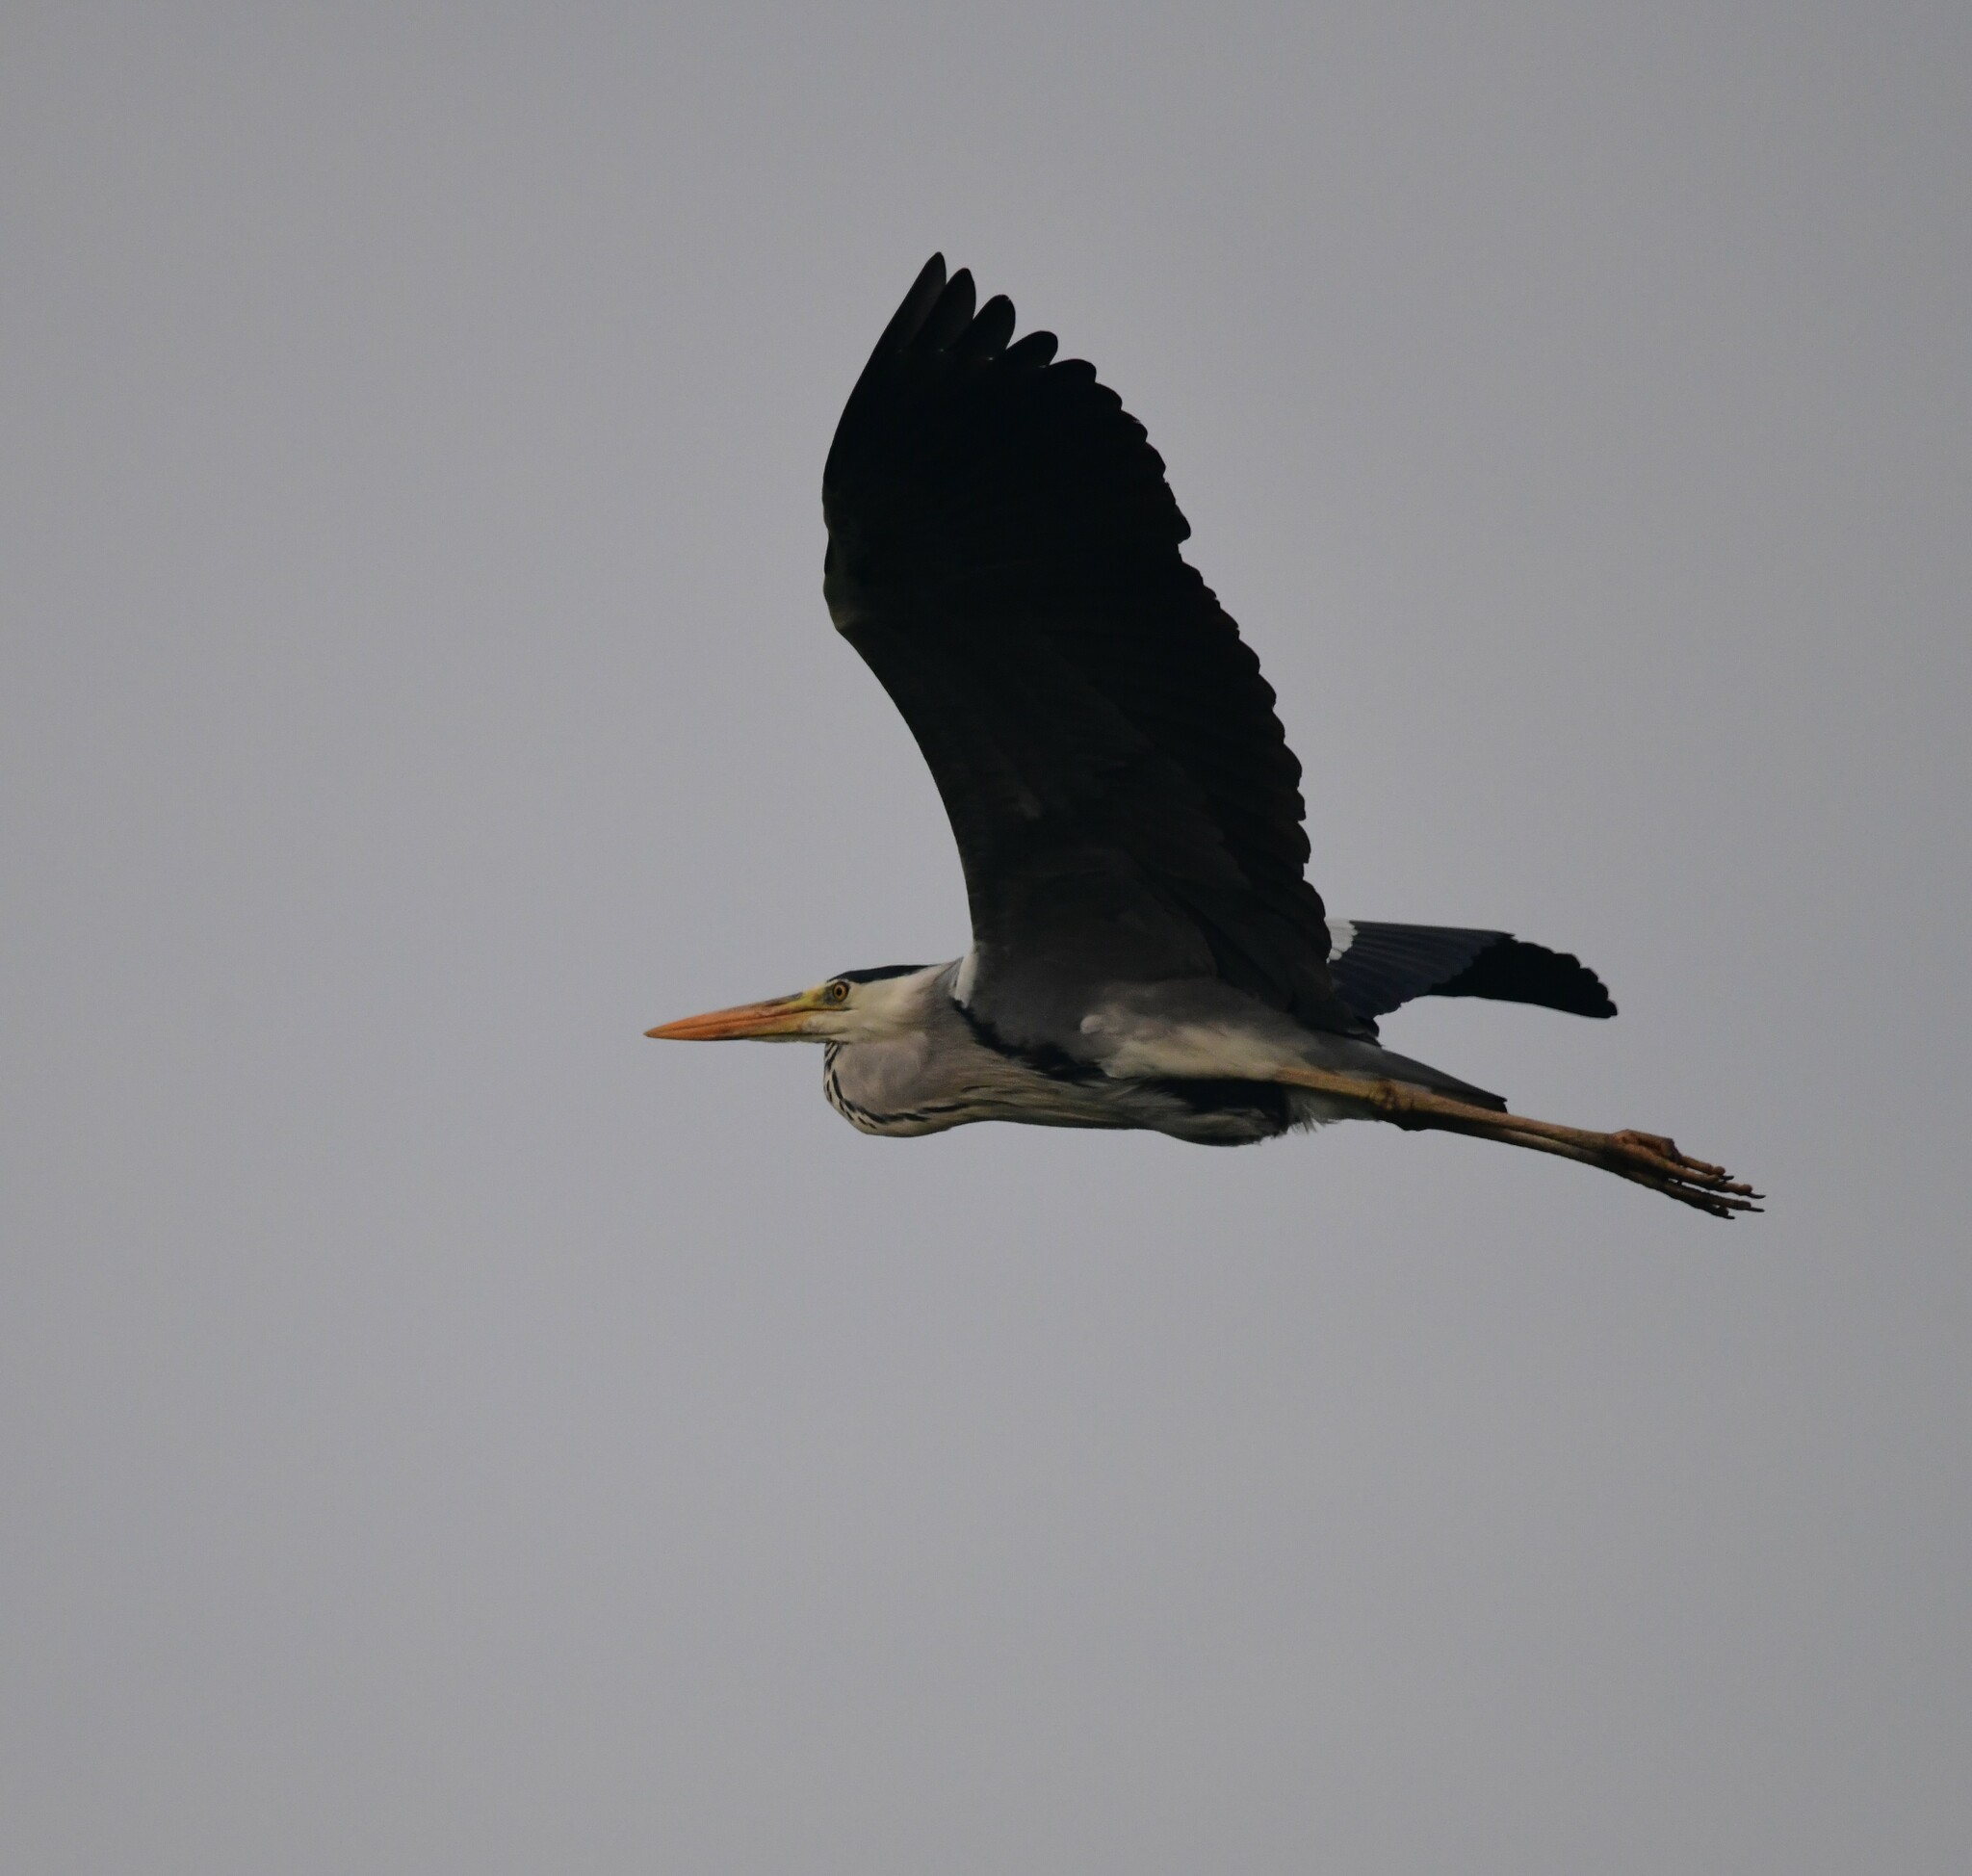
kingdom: Animalia
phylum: Chordata
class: Aves
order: Pelecaniformes
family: Ardeidae
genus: Ardea
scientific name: Ardea cinerea
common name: Grey heron
